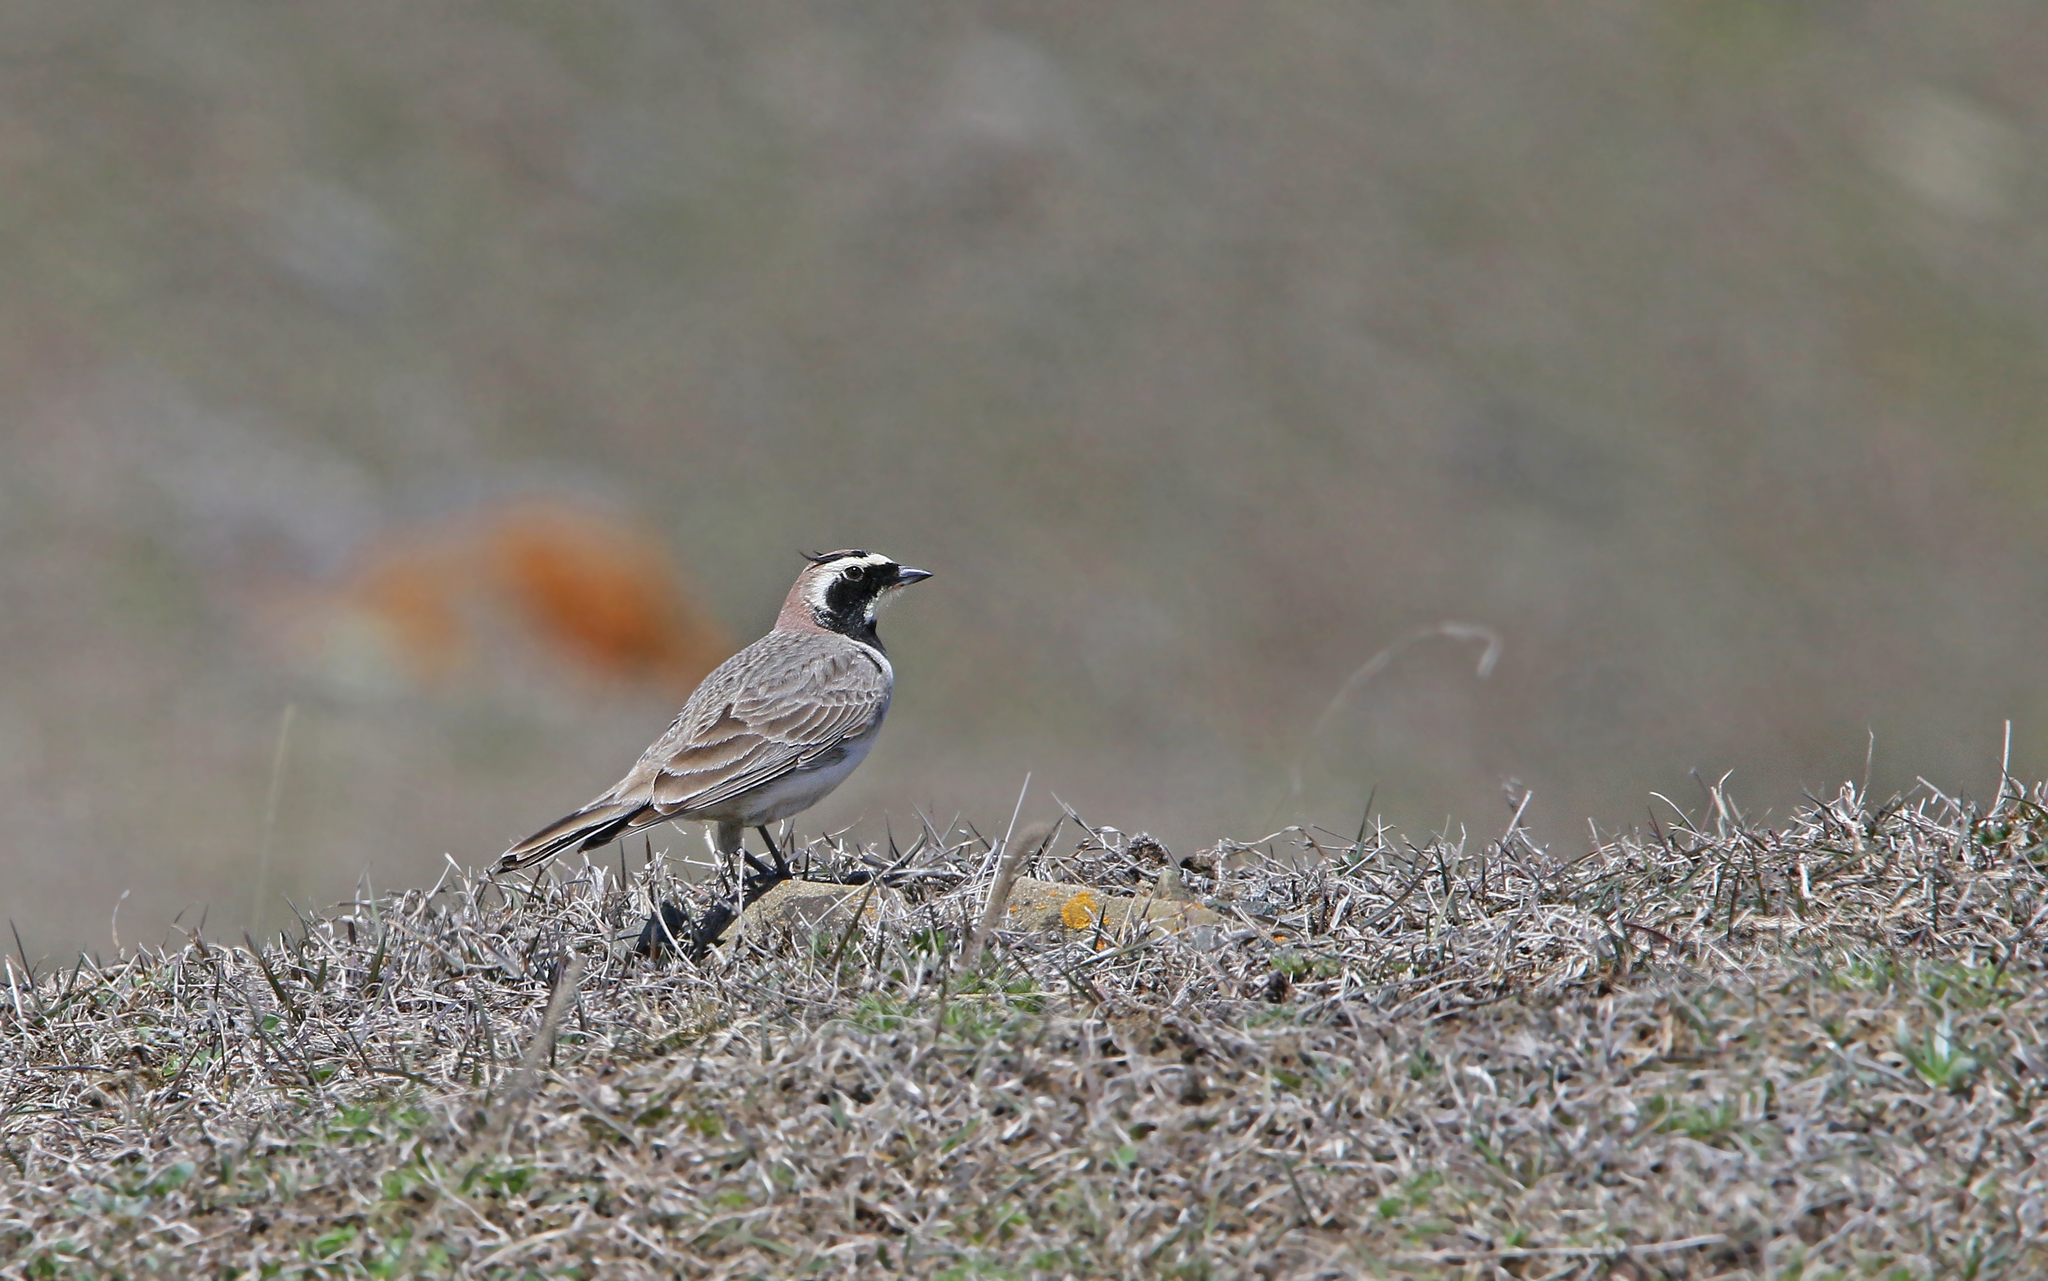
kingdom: Animalia
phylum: Chordata
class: Aves
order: Passeriformes
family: Alaudidae
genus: Eremophila
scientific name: Eremophila alpestris
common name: Horned lark
